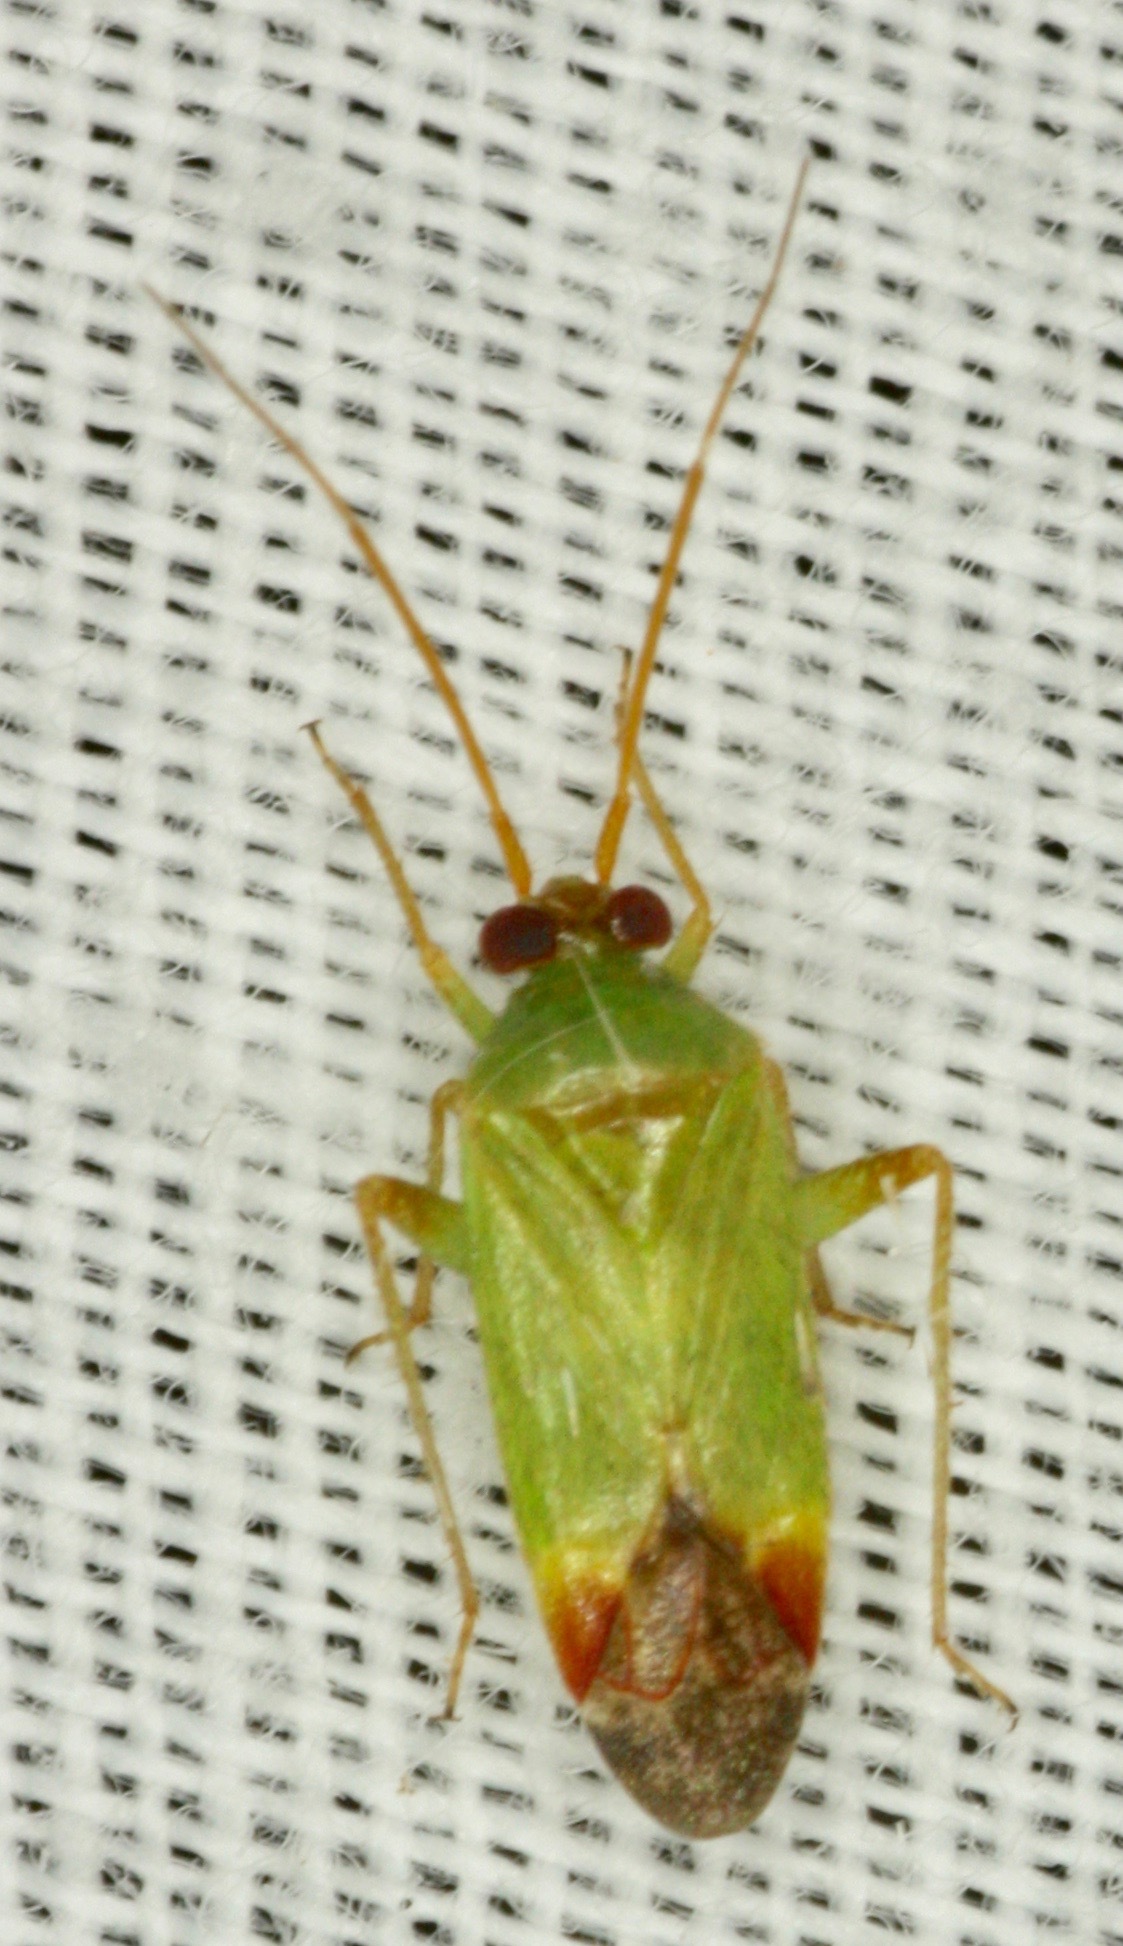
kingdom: Animalia
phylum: Arthropoda
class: Insecta
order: Hemiptera
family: Miridae
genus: Phytocoris
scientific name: Phytocoris vanduzeei
